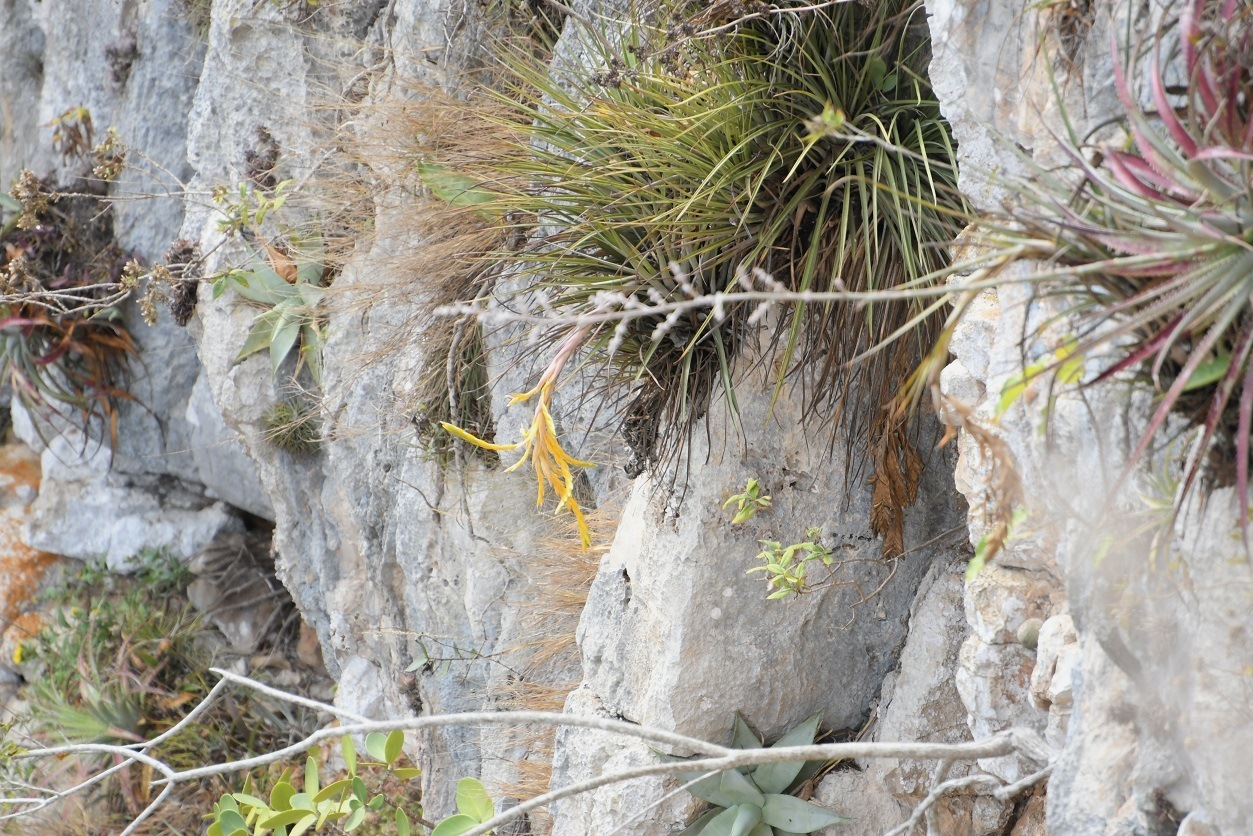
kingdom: Plantae
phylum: Tracheophyta
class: Liliopsida
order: Poales
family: Bromeliaceae
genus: Tillandsia
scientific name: Tillandsia fasciculata
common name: Giant airplant
